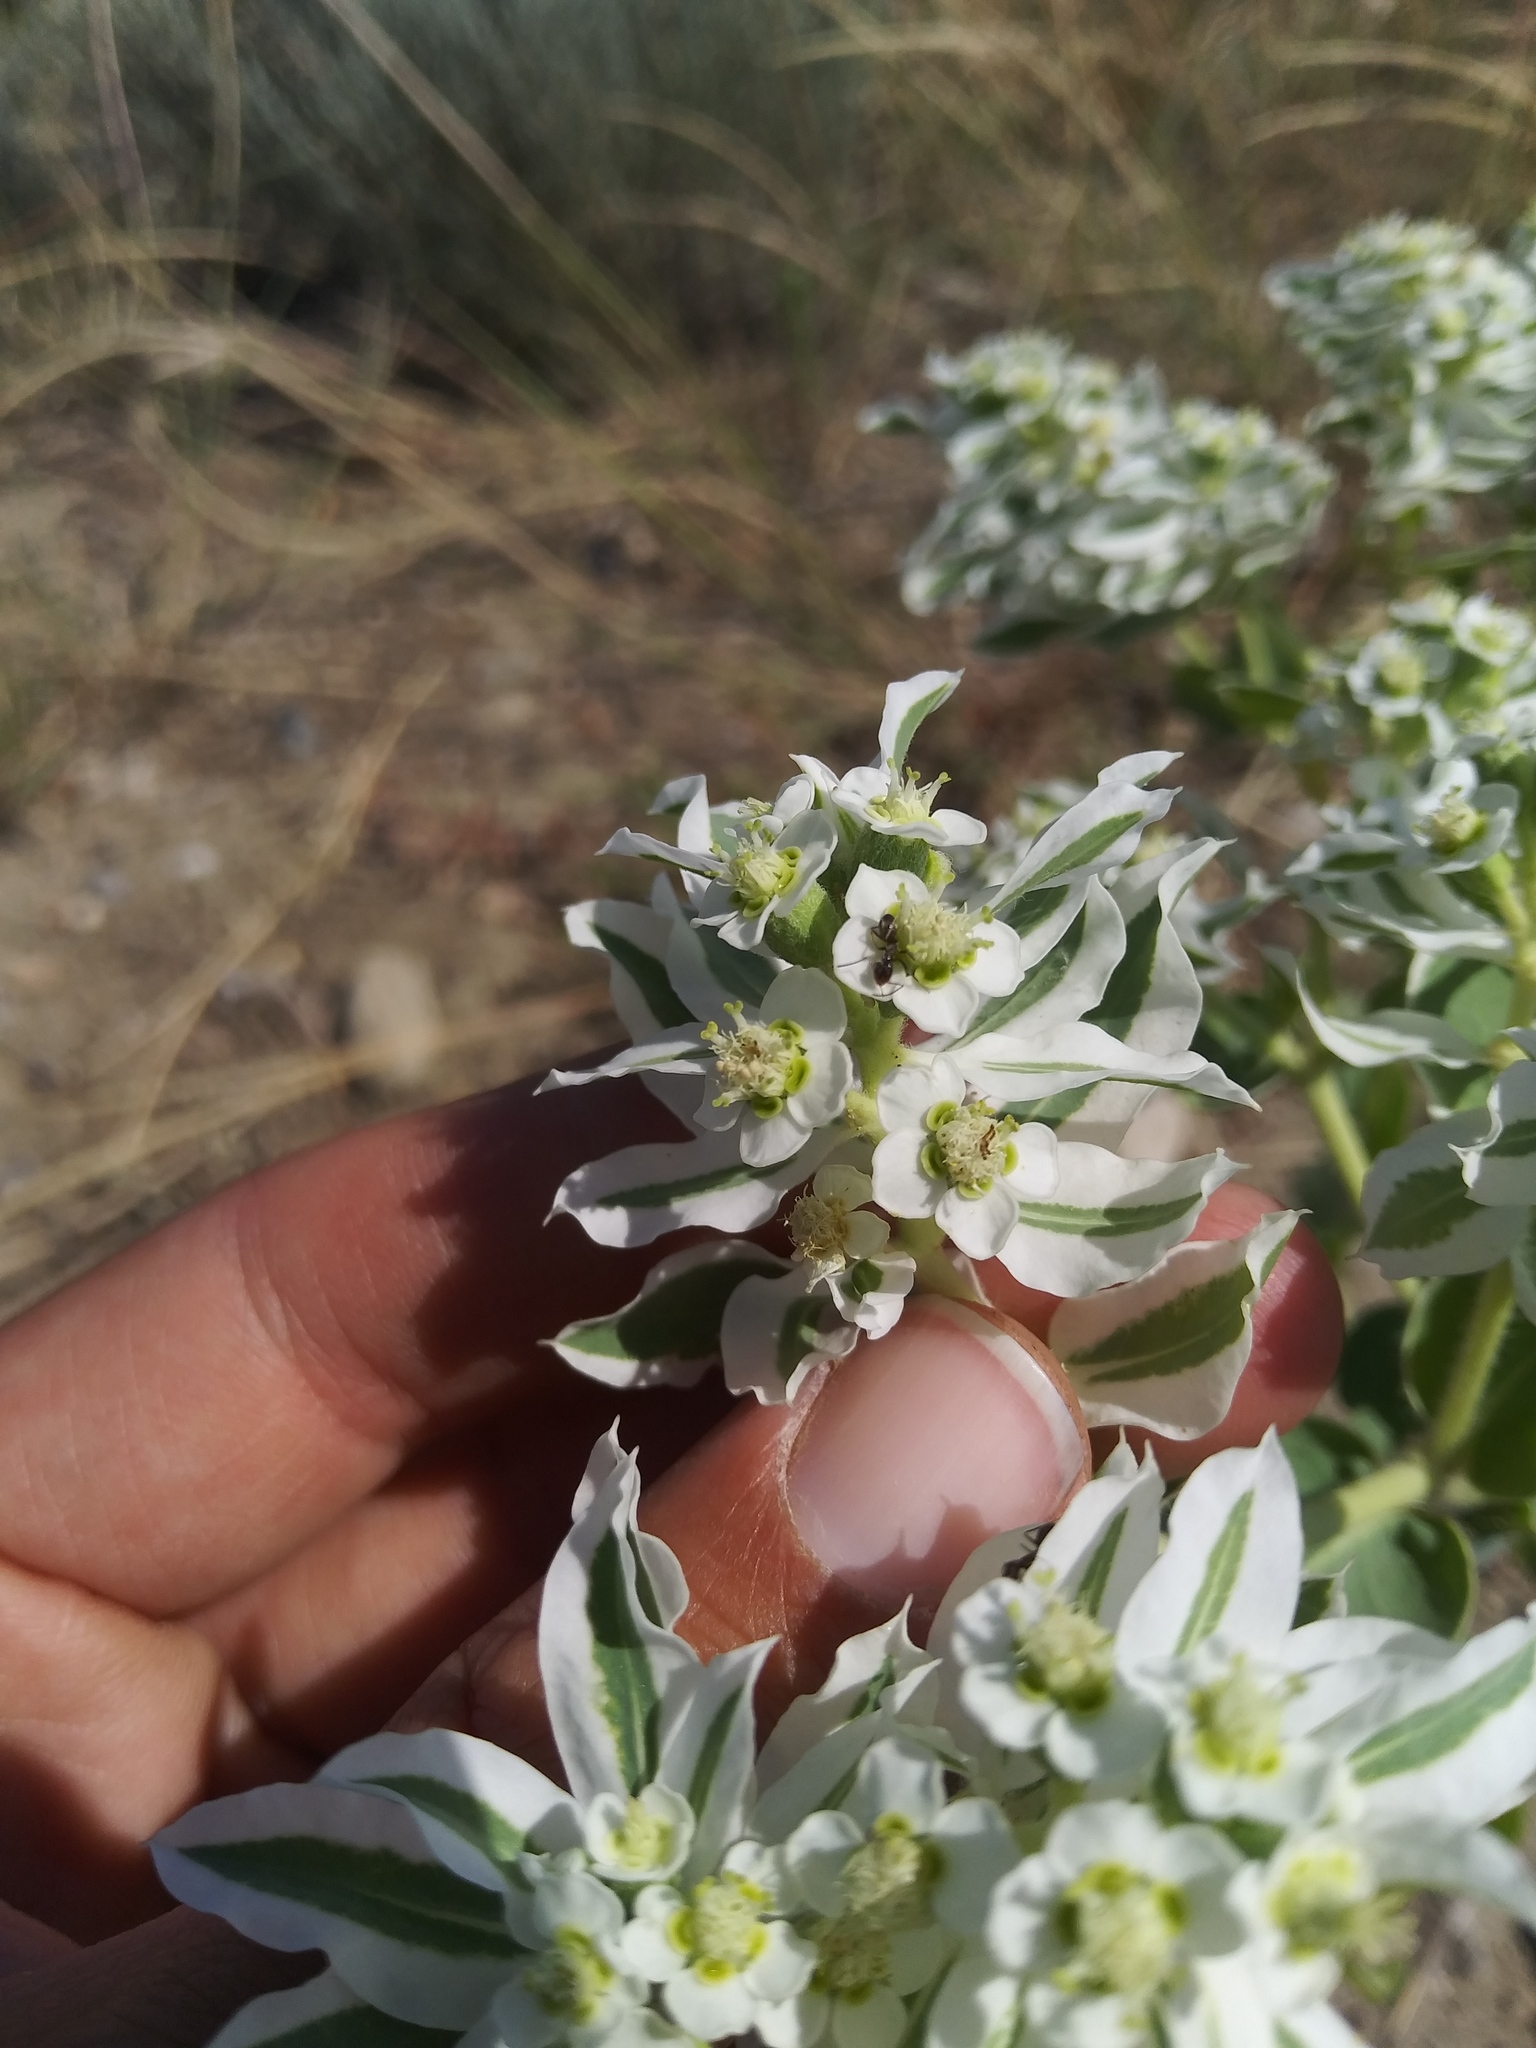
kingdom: Plantae
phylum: Tracheophyta
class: Magnoliopsida
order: Malpighiales
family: Euphorbiaceae
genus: Euphorbia
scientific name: Euphorbia marginata
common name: Ghostweed
